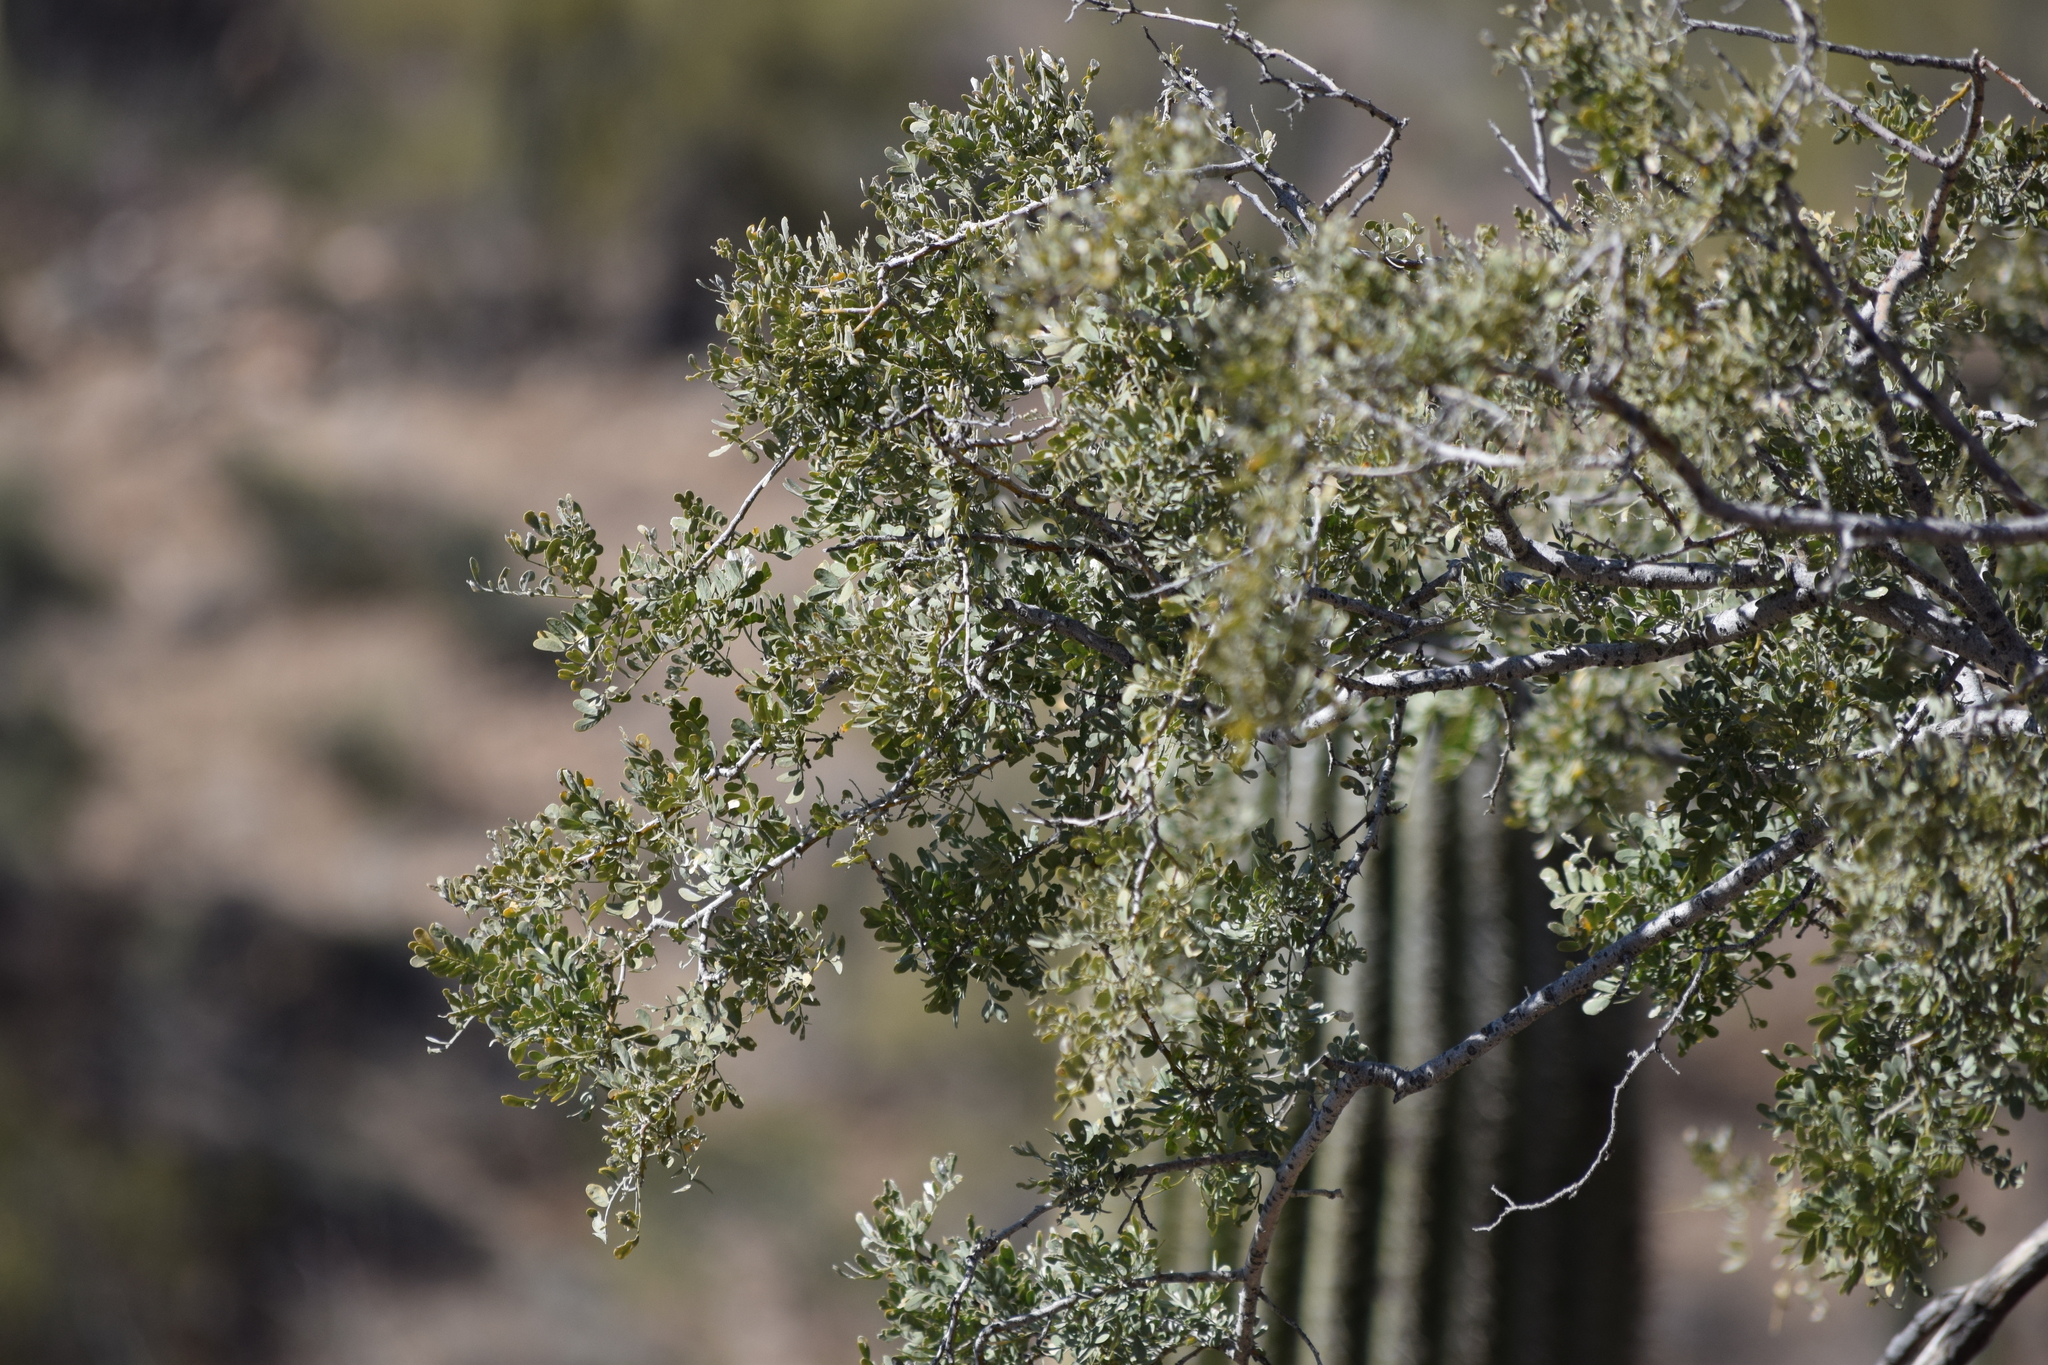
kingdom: Plantae
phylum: Tracheophyta
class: Magnoliopsida
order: Fabales
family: Fabaceae
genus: Olneya
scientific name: Olneya tesota
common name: Desert ironwood
